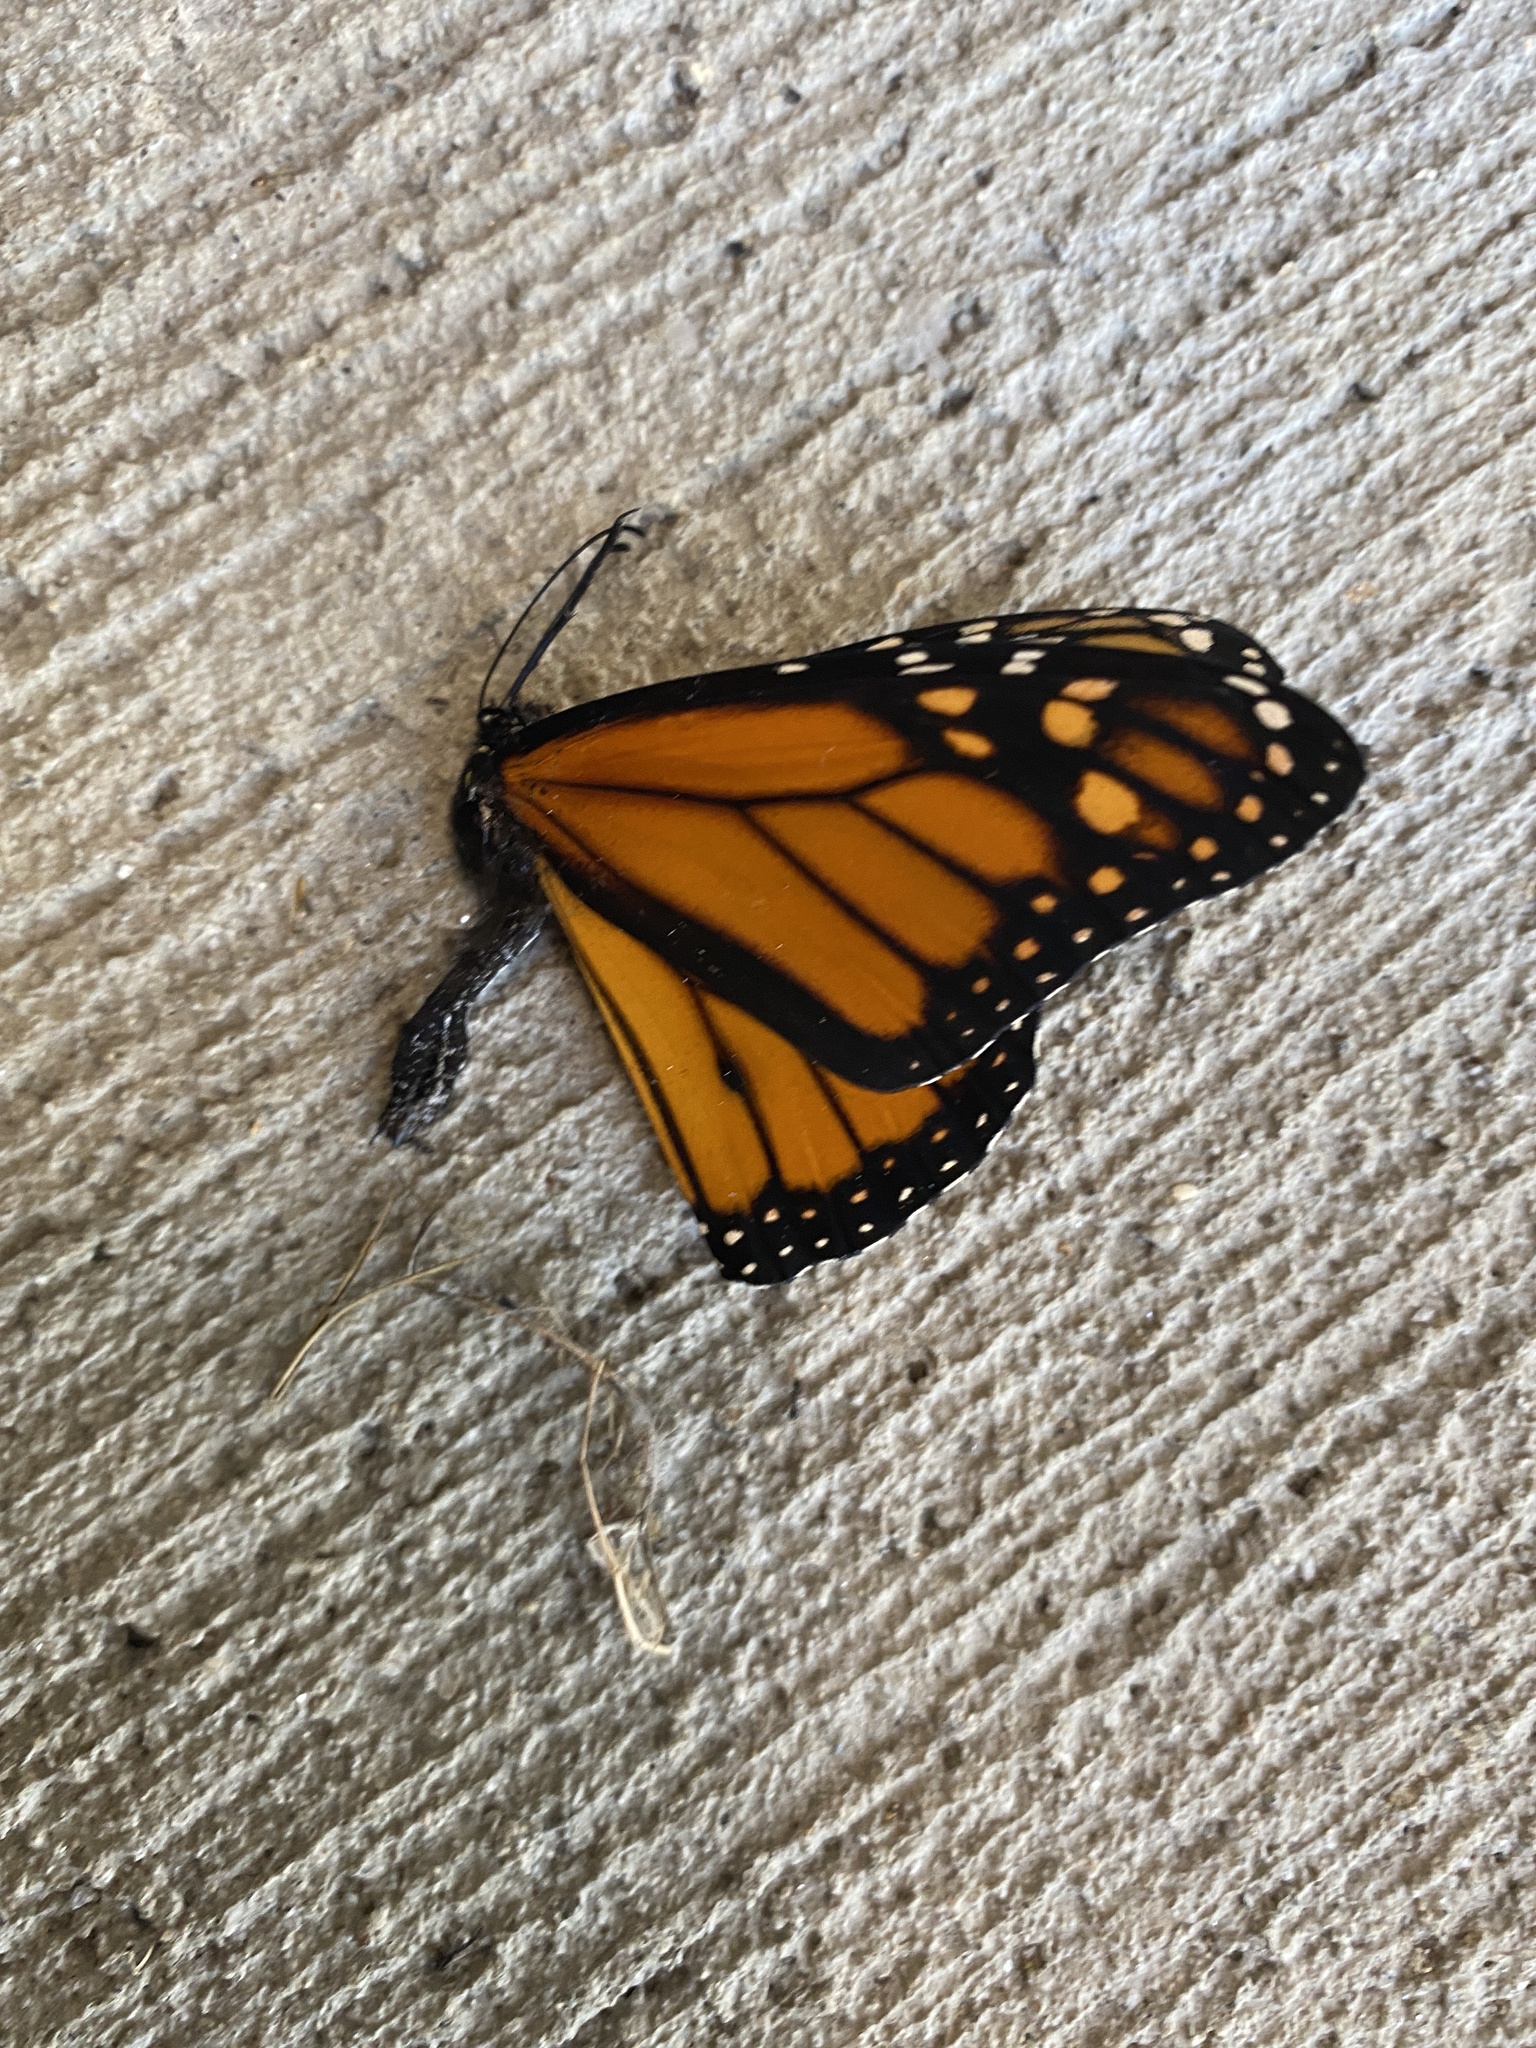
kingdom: Animalia
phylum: Arthropoda
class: Insecta
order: Lepidoptera
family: Nymphalidae
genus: Danaus
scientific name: Danaus plexippus
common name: Monarch
